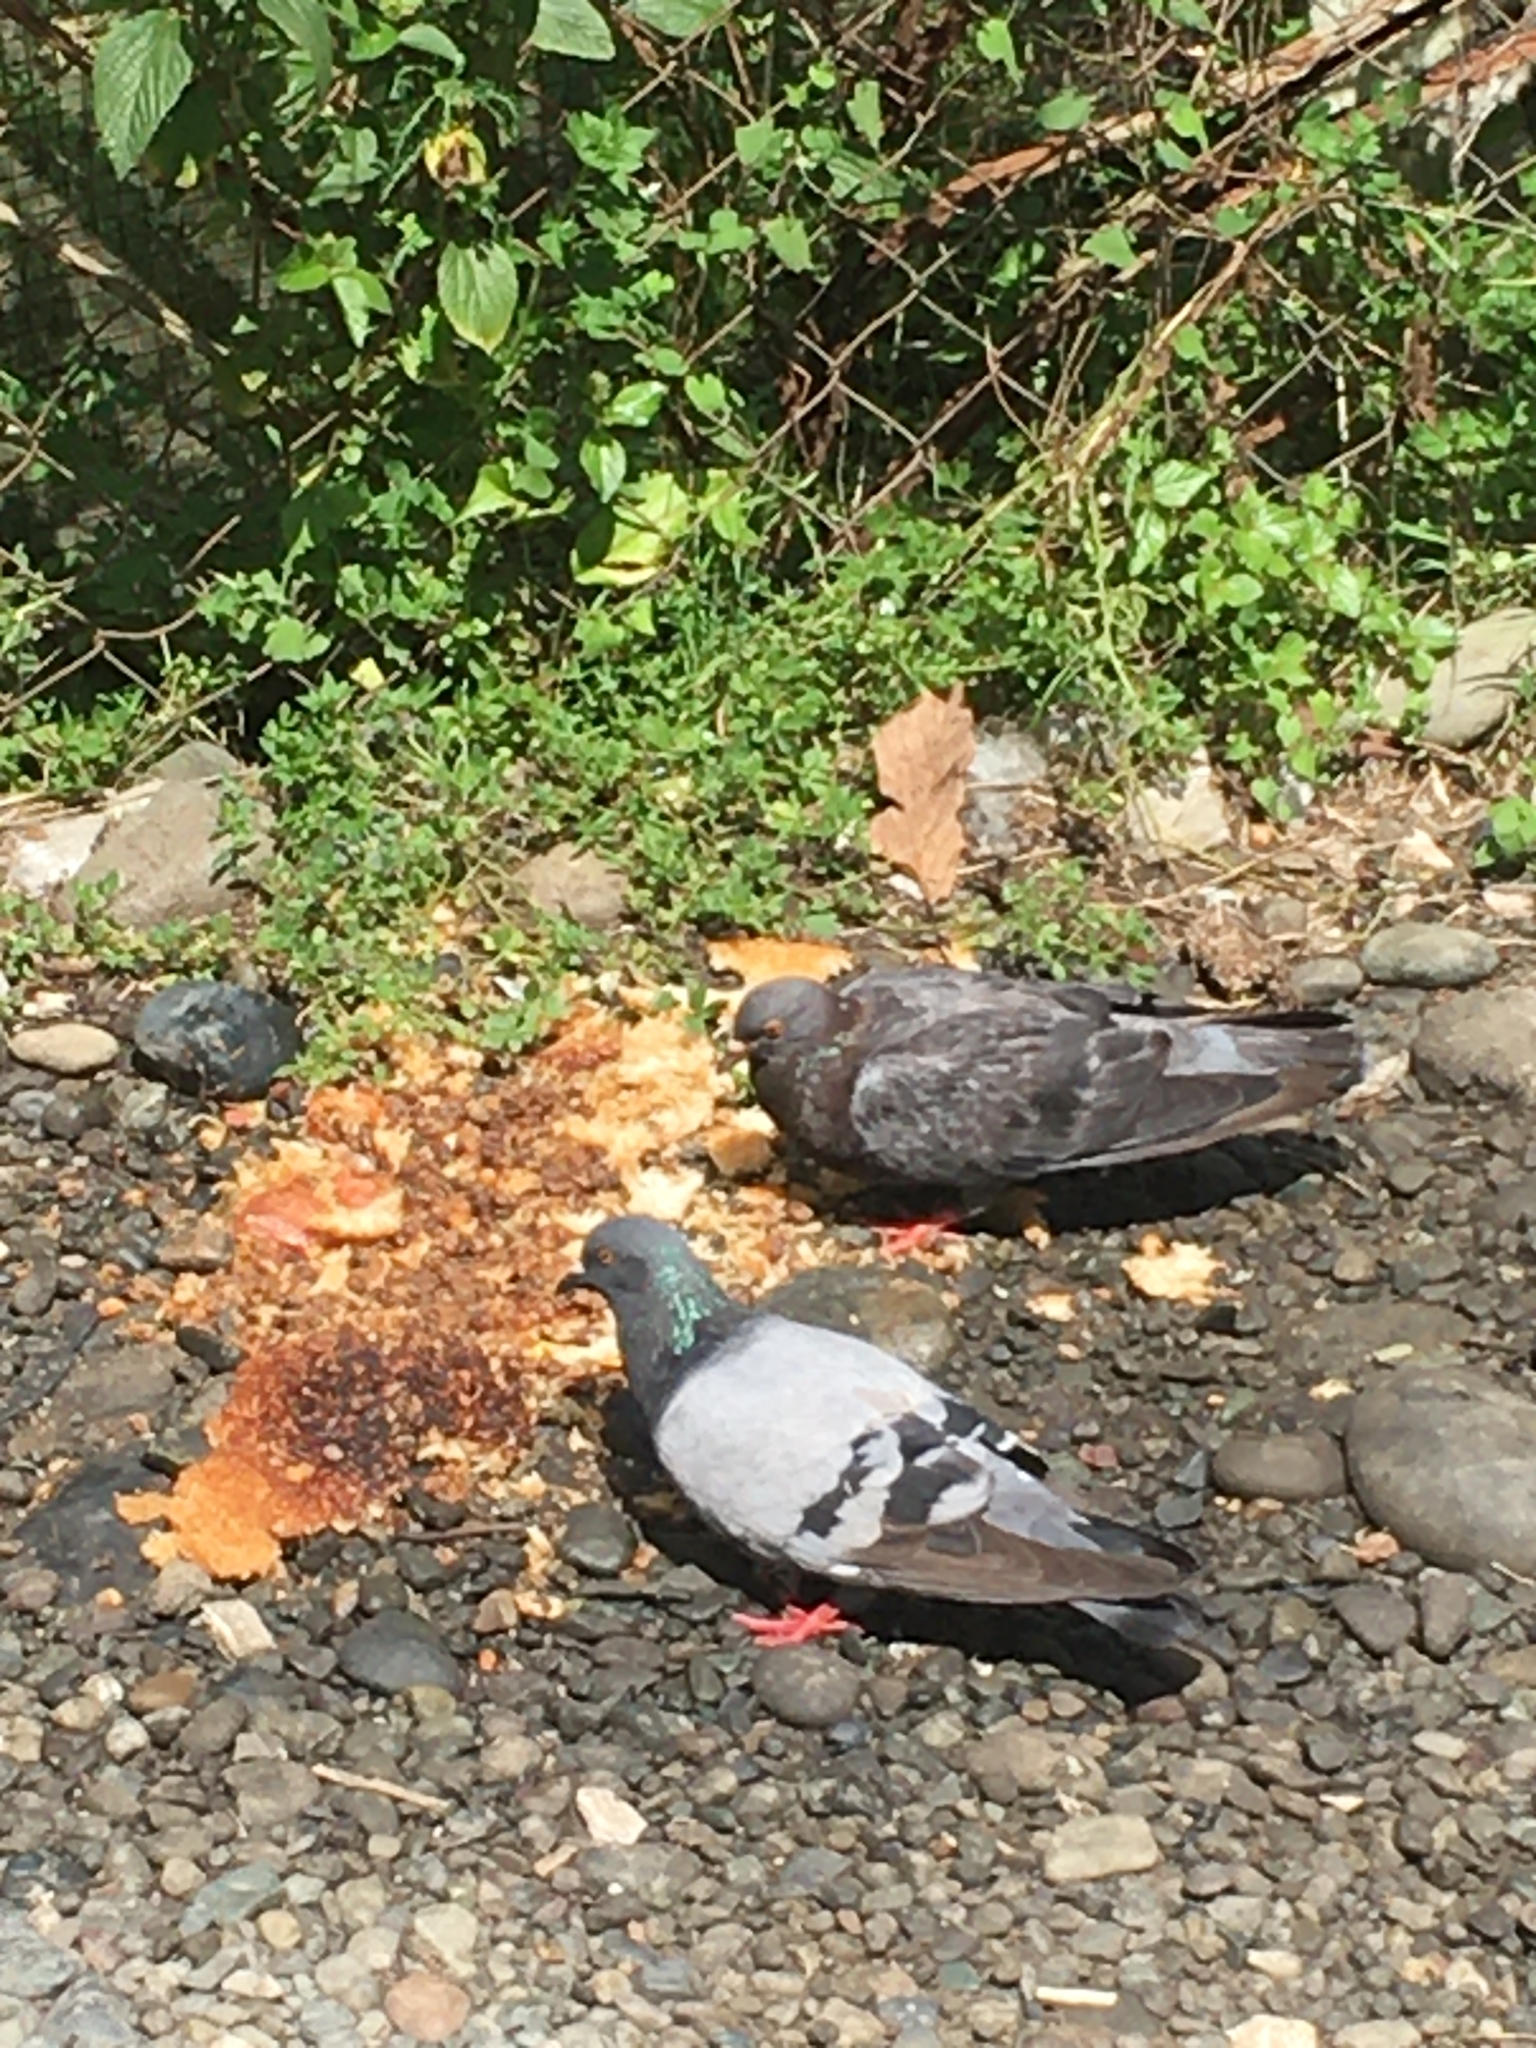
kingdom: Animalia
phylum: Chordata
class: Aves
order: Columbiformes
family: Columbidae
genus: Columba
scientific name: Columba livia
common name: Rock pigeon
